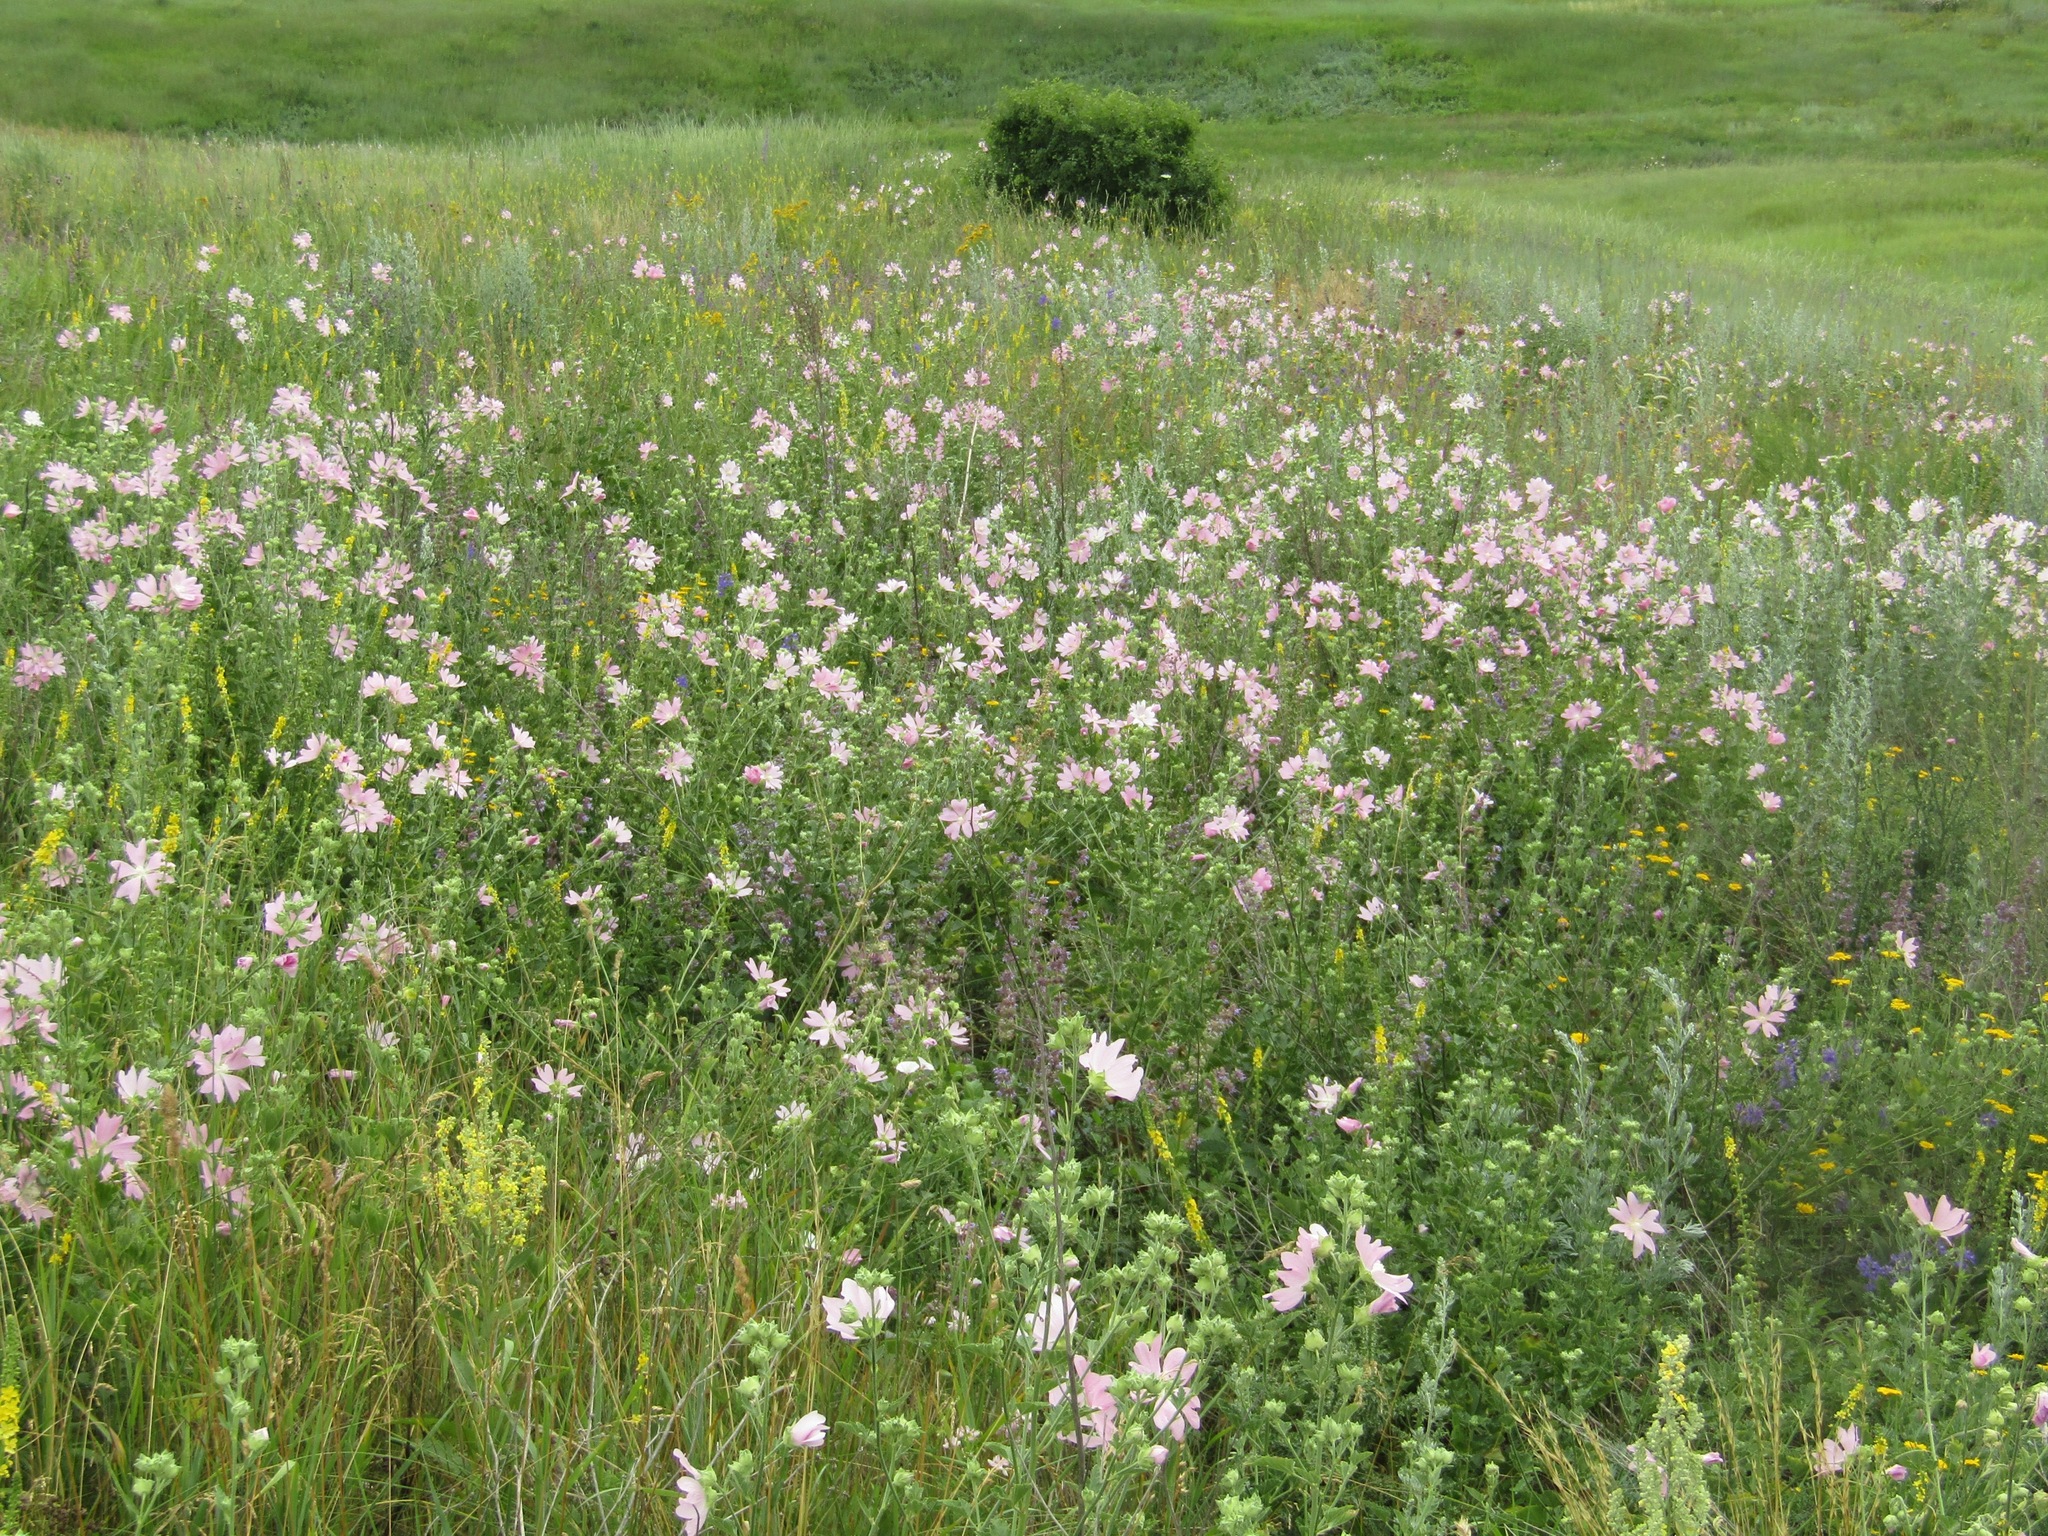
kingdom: Plantae
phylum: Tracheophyta
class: Magnoliopsida
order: Malvales
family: Malvaceae
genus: Malva
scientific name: Malva thuringiaca
